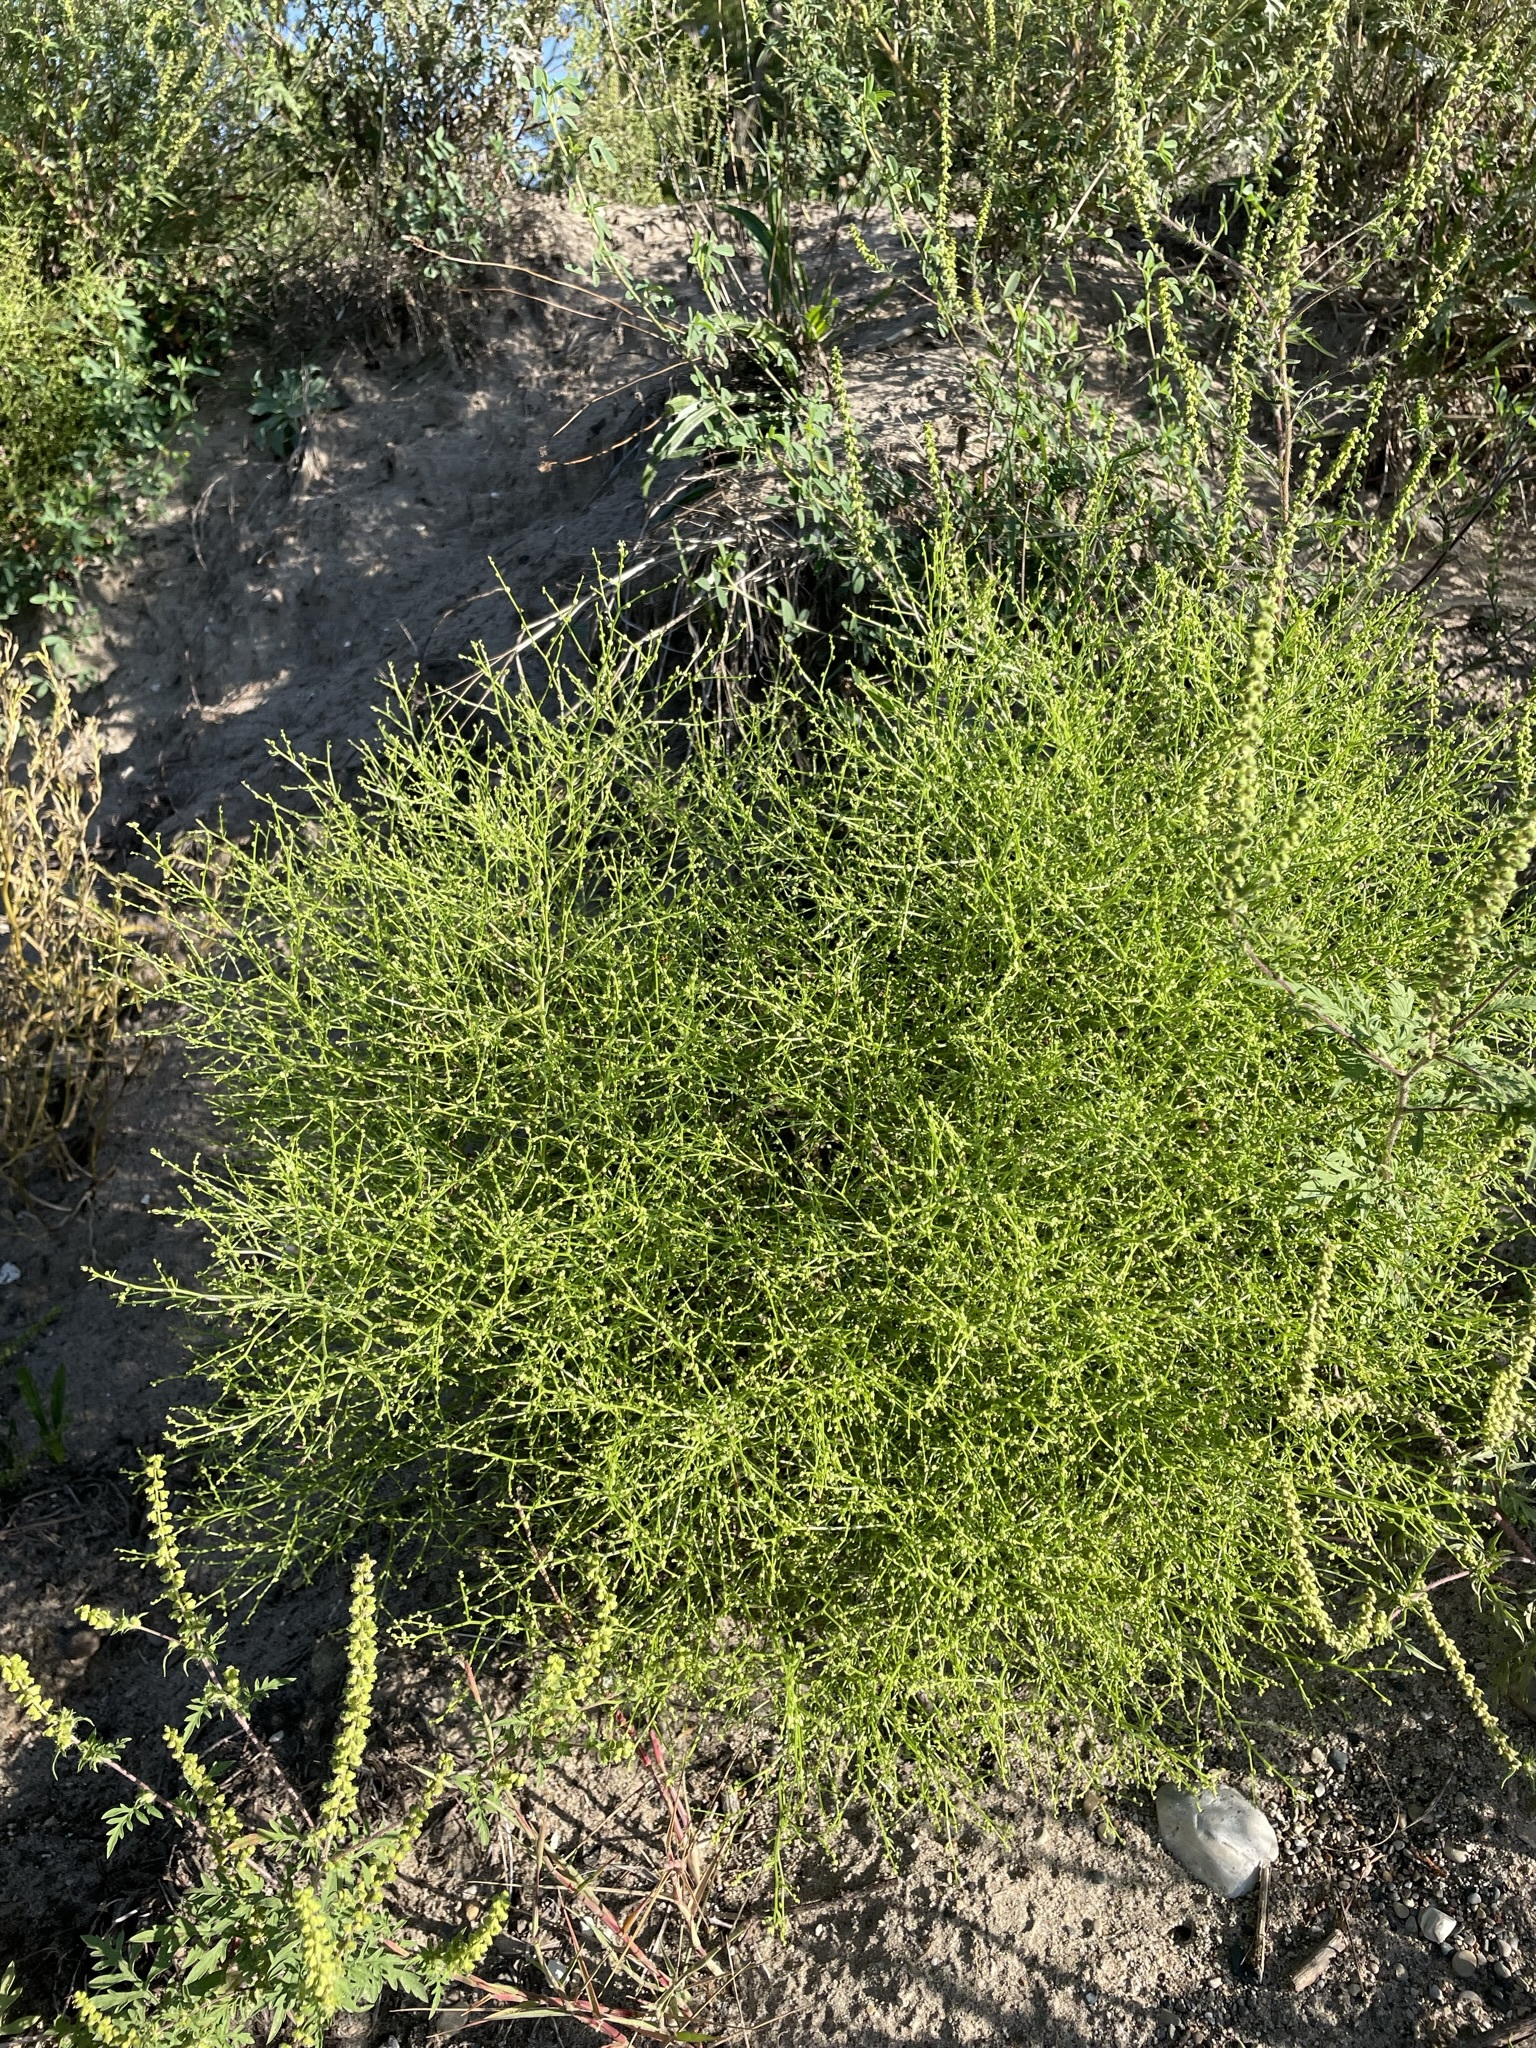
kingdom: Plantae
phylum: Tracheophyta
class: Magnoliopsida
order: Caryophyllales
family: Amaranthaceae
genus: Dysphania
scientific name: Dysphania atriplicifolia
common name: Plains tumbleweed
